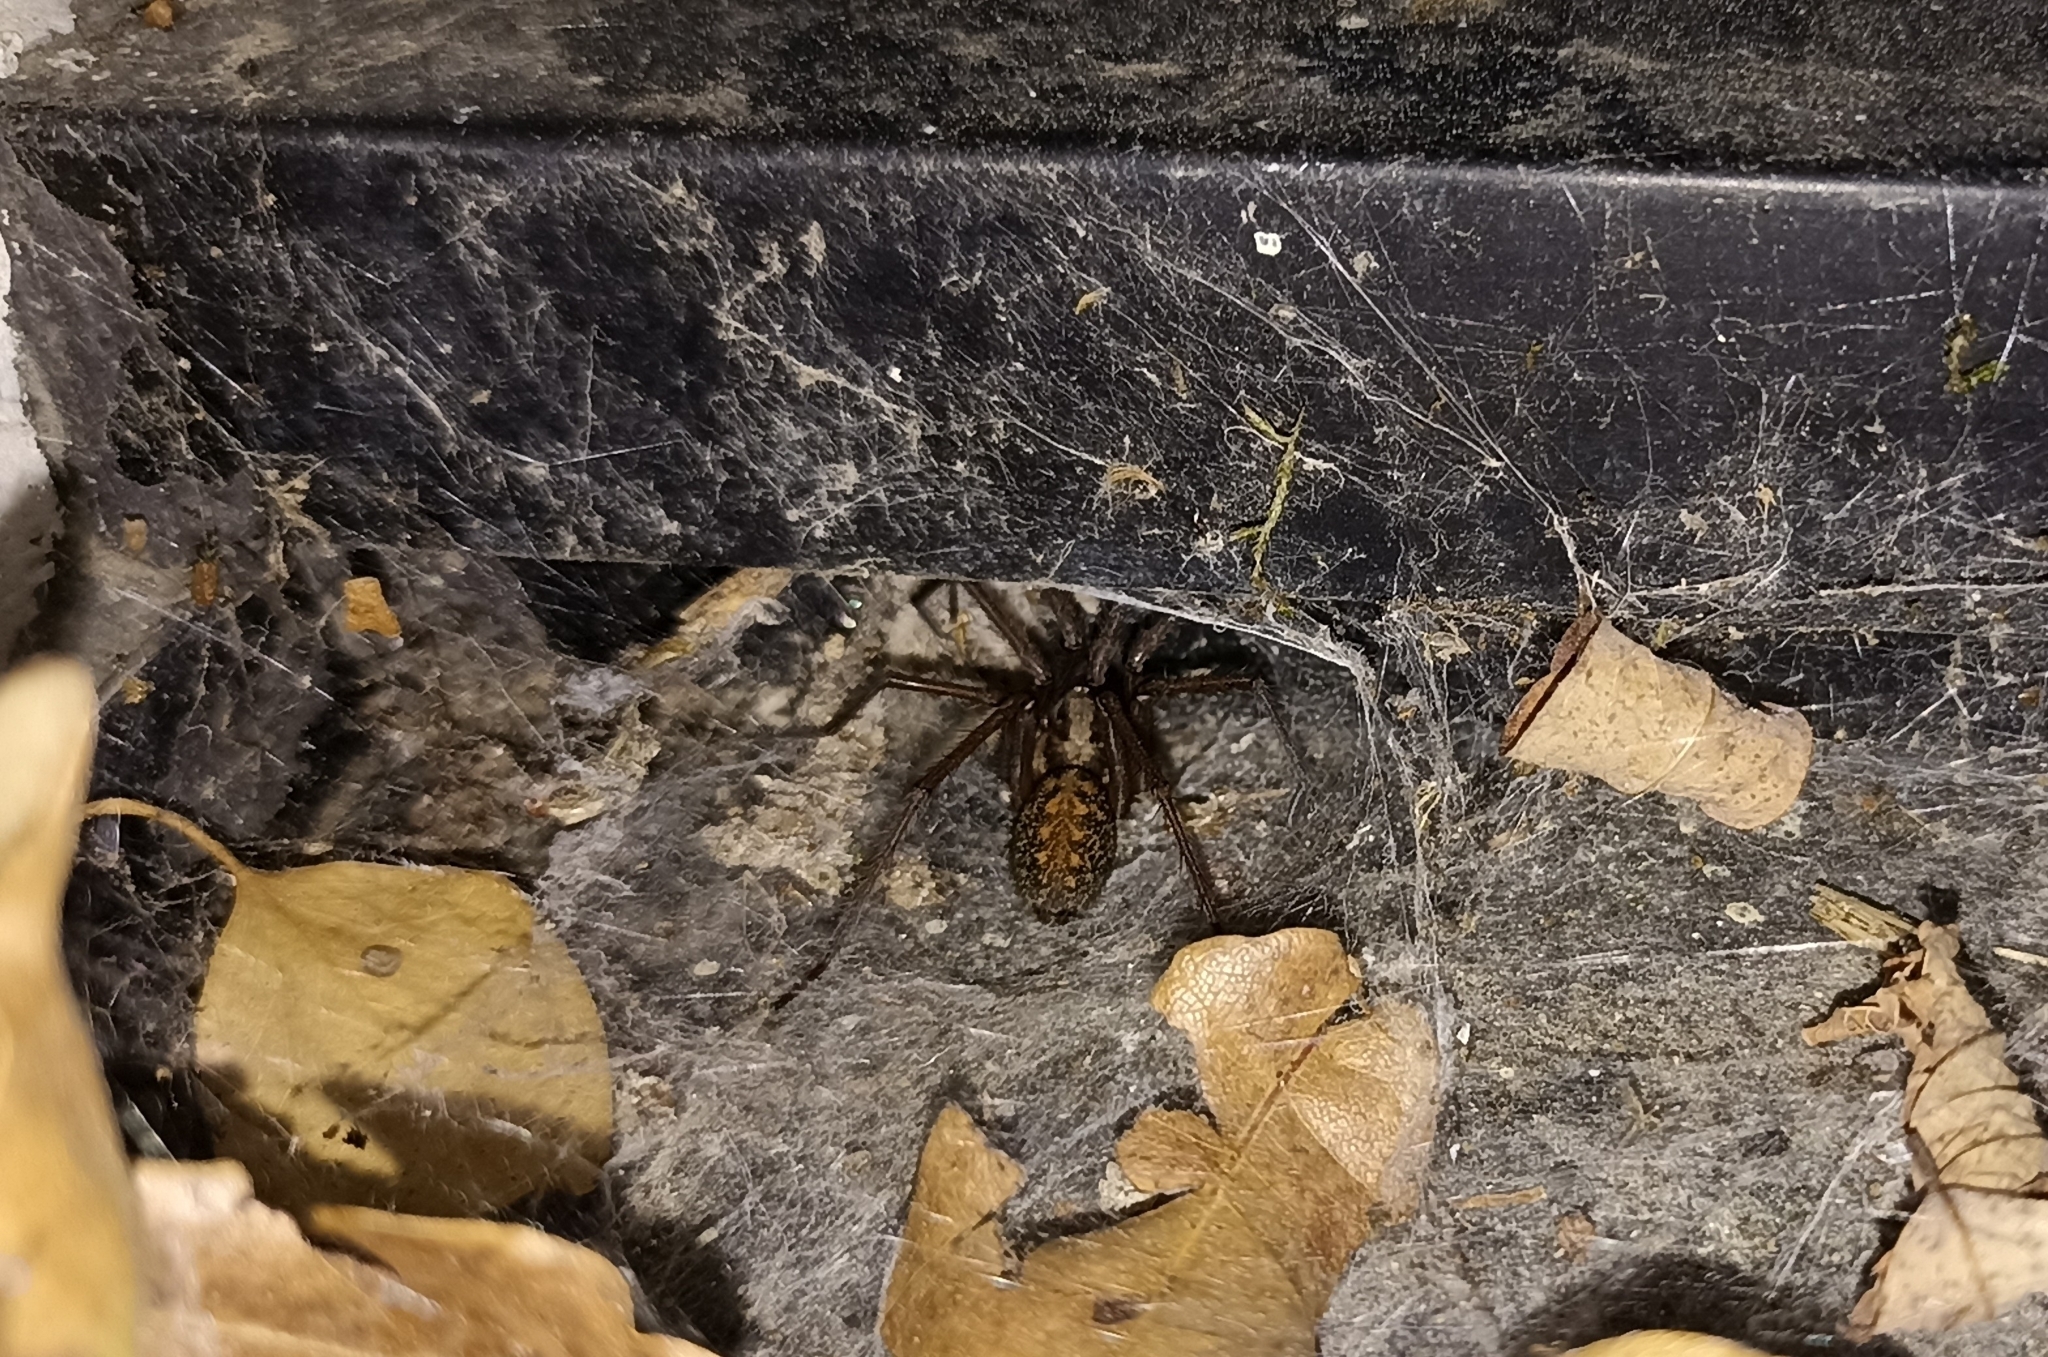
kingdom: Animalia
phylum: Arthropoda
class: Arachnida
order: Araneae
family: Agelenidae
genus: Eratigena
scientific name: Eratigena
